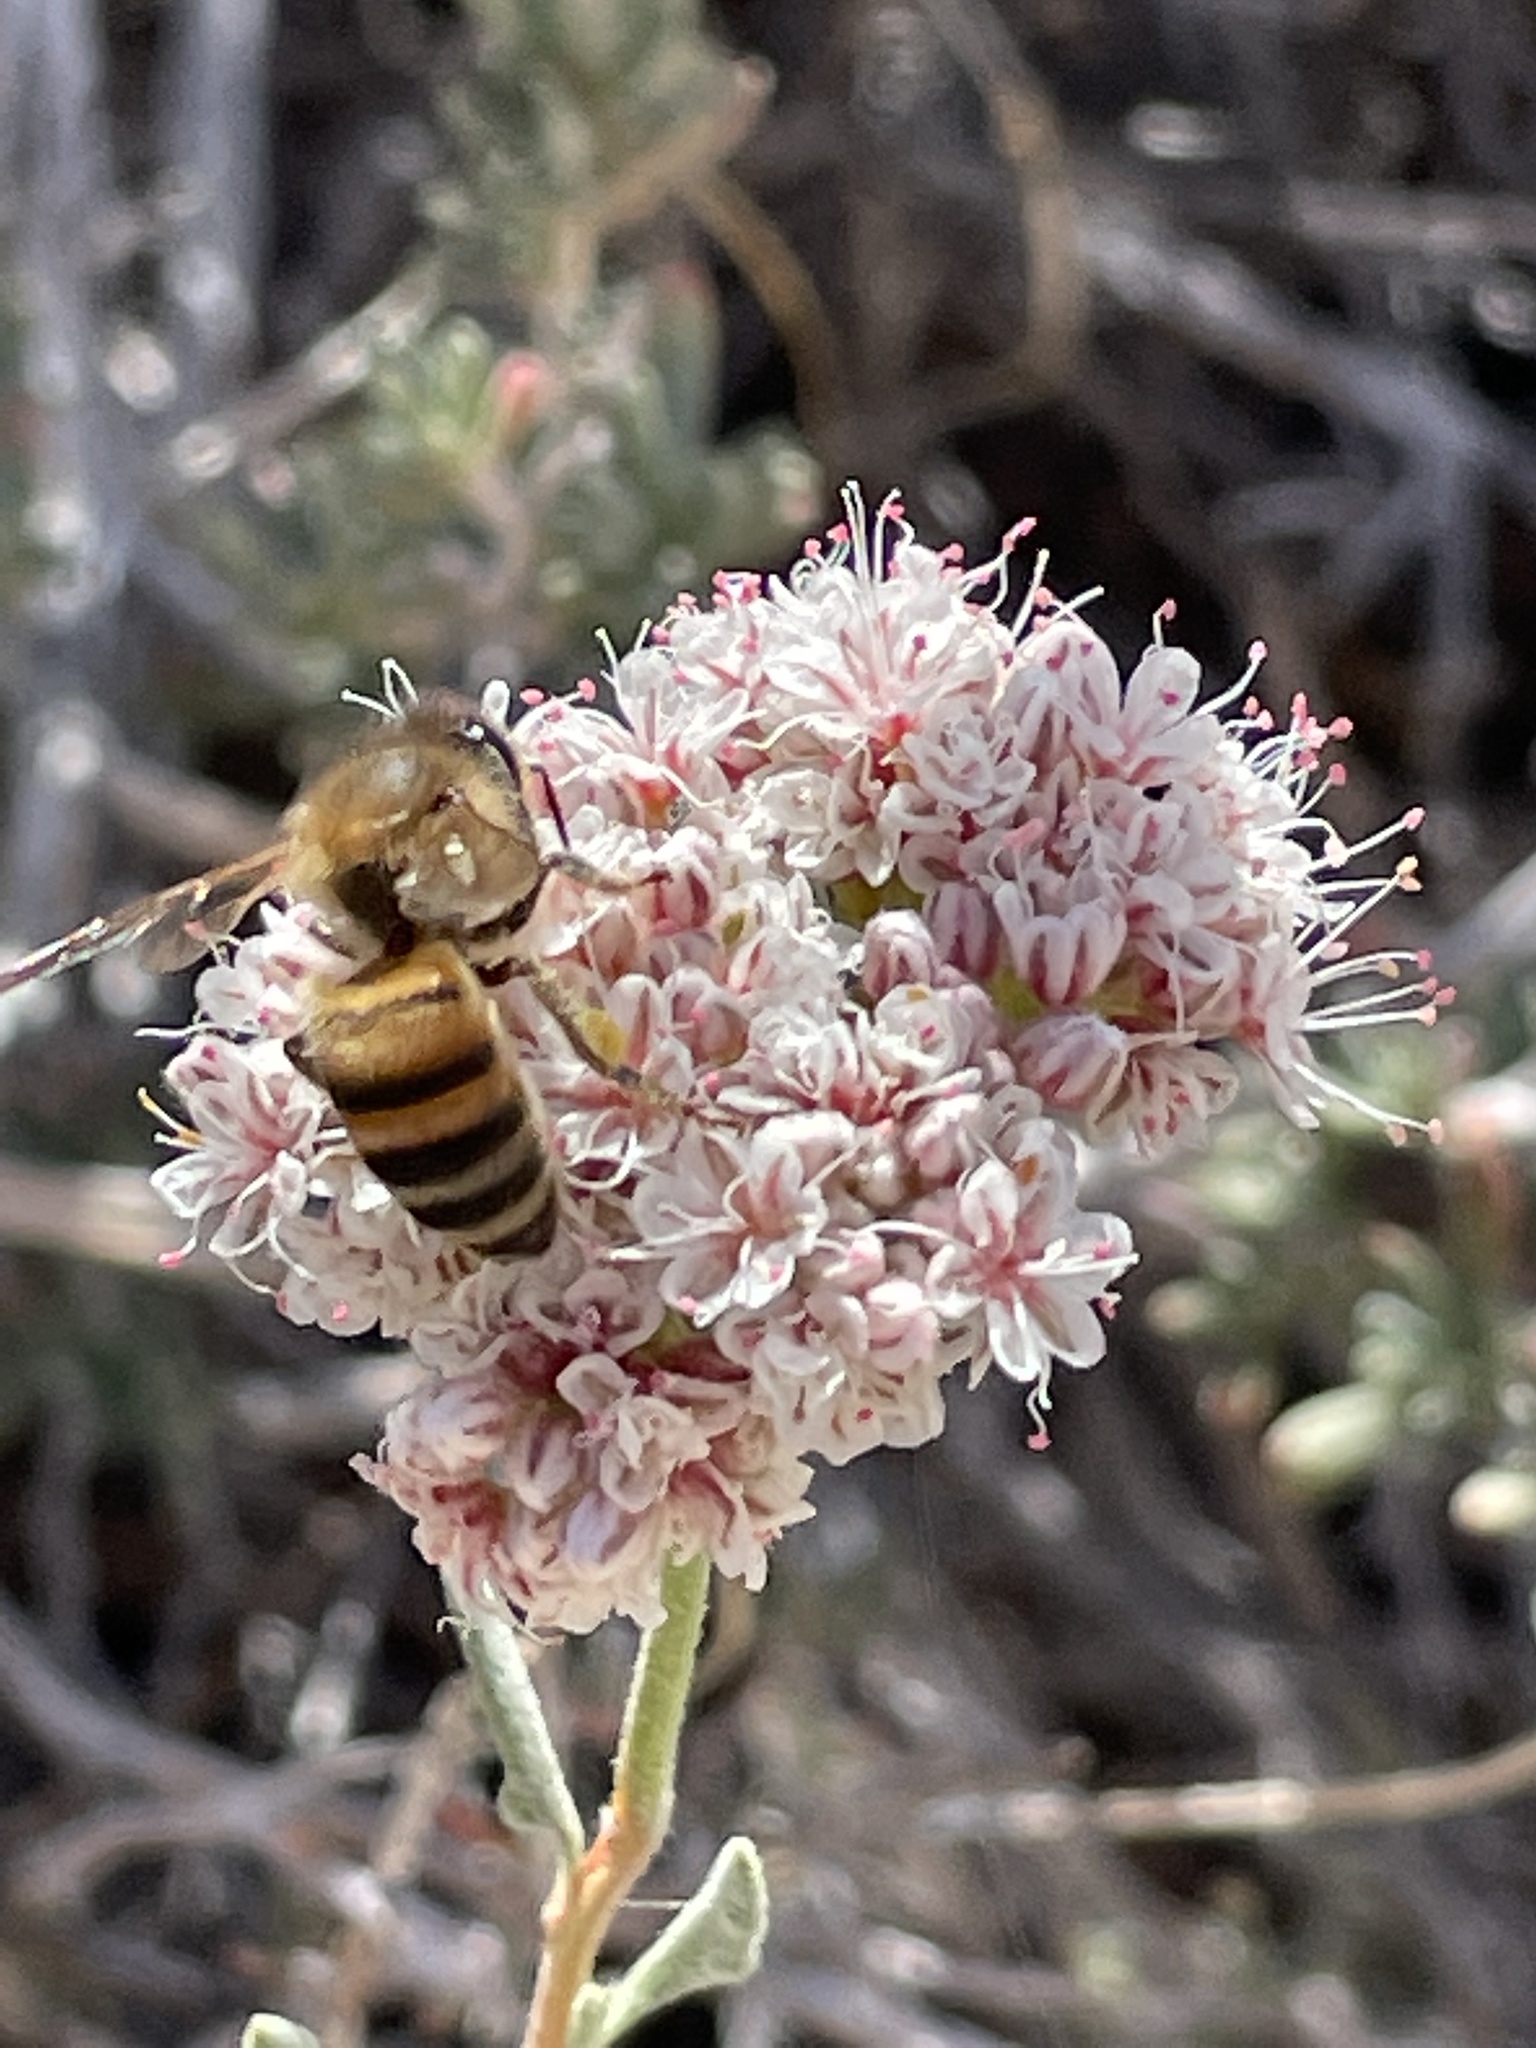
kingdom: Animalia
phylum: Arthropoda
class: Insecta
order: Hymenoptera
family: Apidae
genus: Apis
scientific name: Apis mellifera
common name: Honey bee
